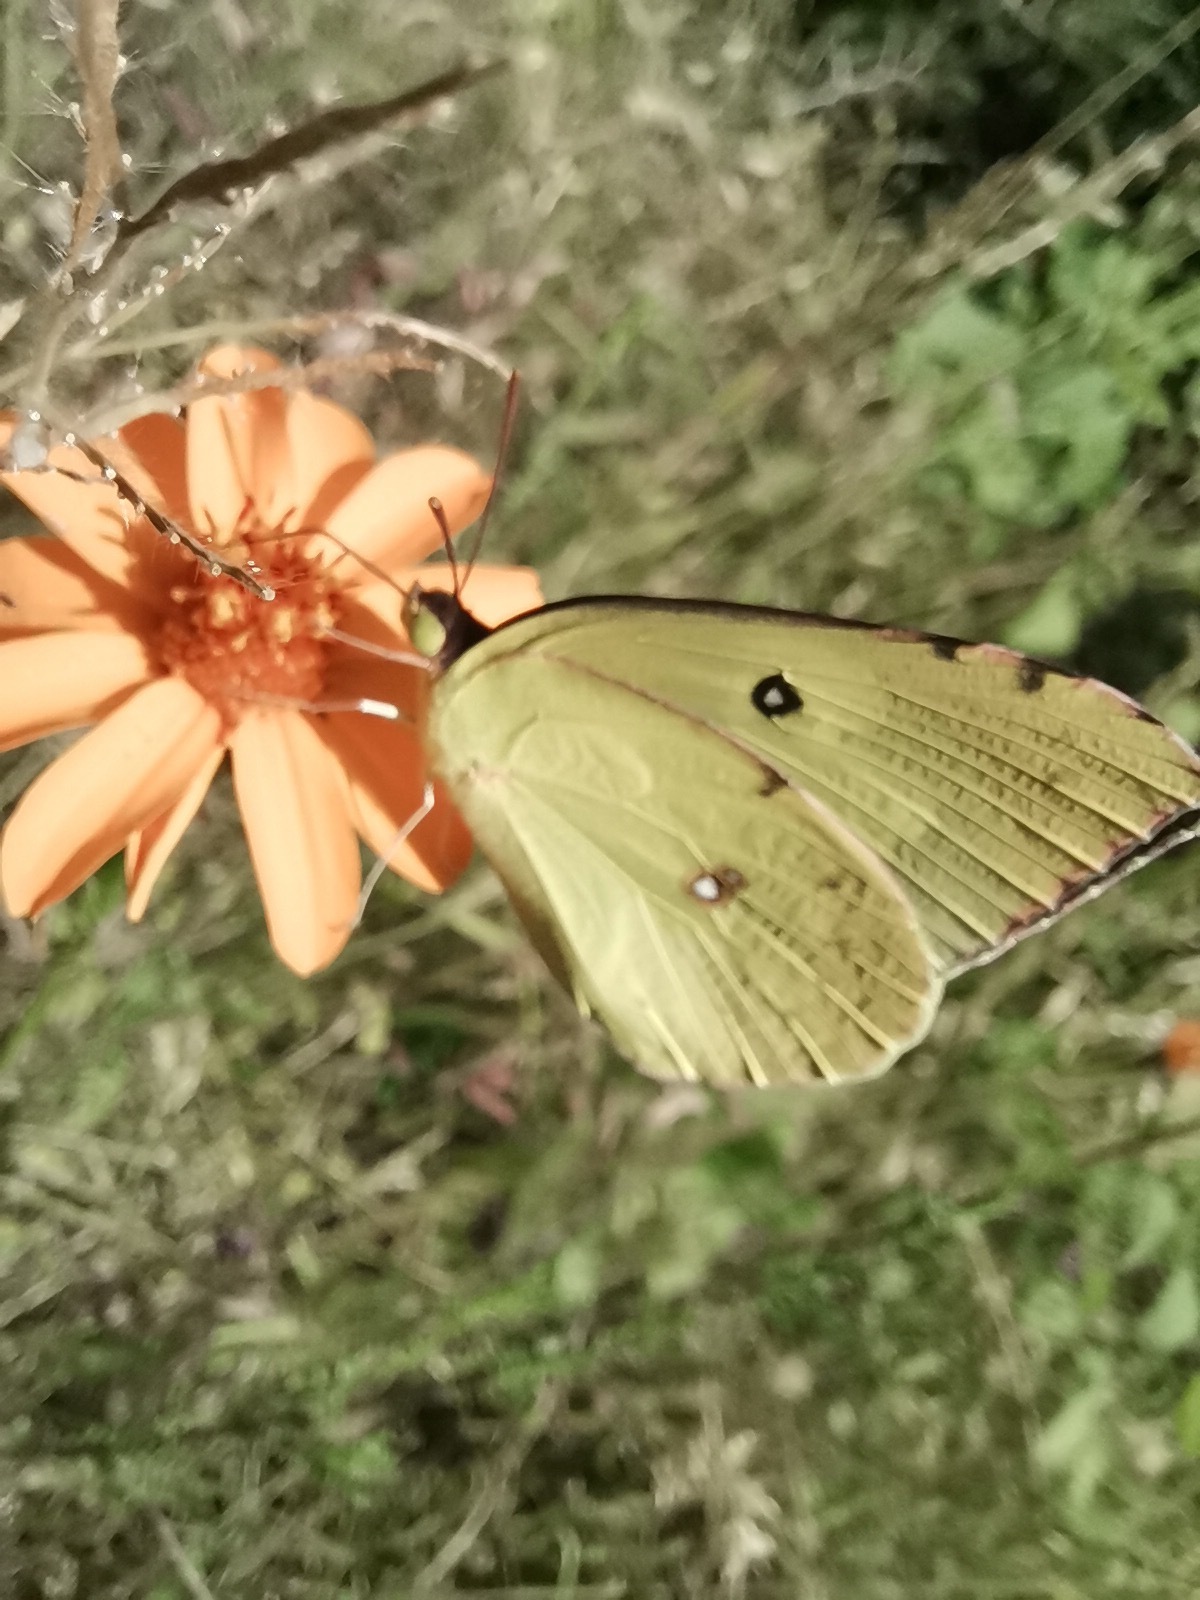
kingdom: Animalia
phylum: Arthropoda
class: Insecta
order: Lepidoptera
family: Pieridae
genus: Zerene
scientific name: Zerene cesonia
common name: Southern dogface
